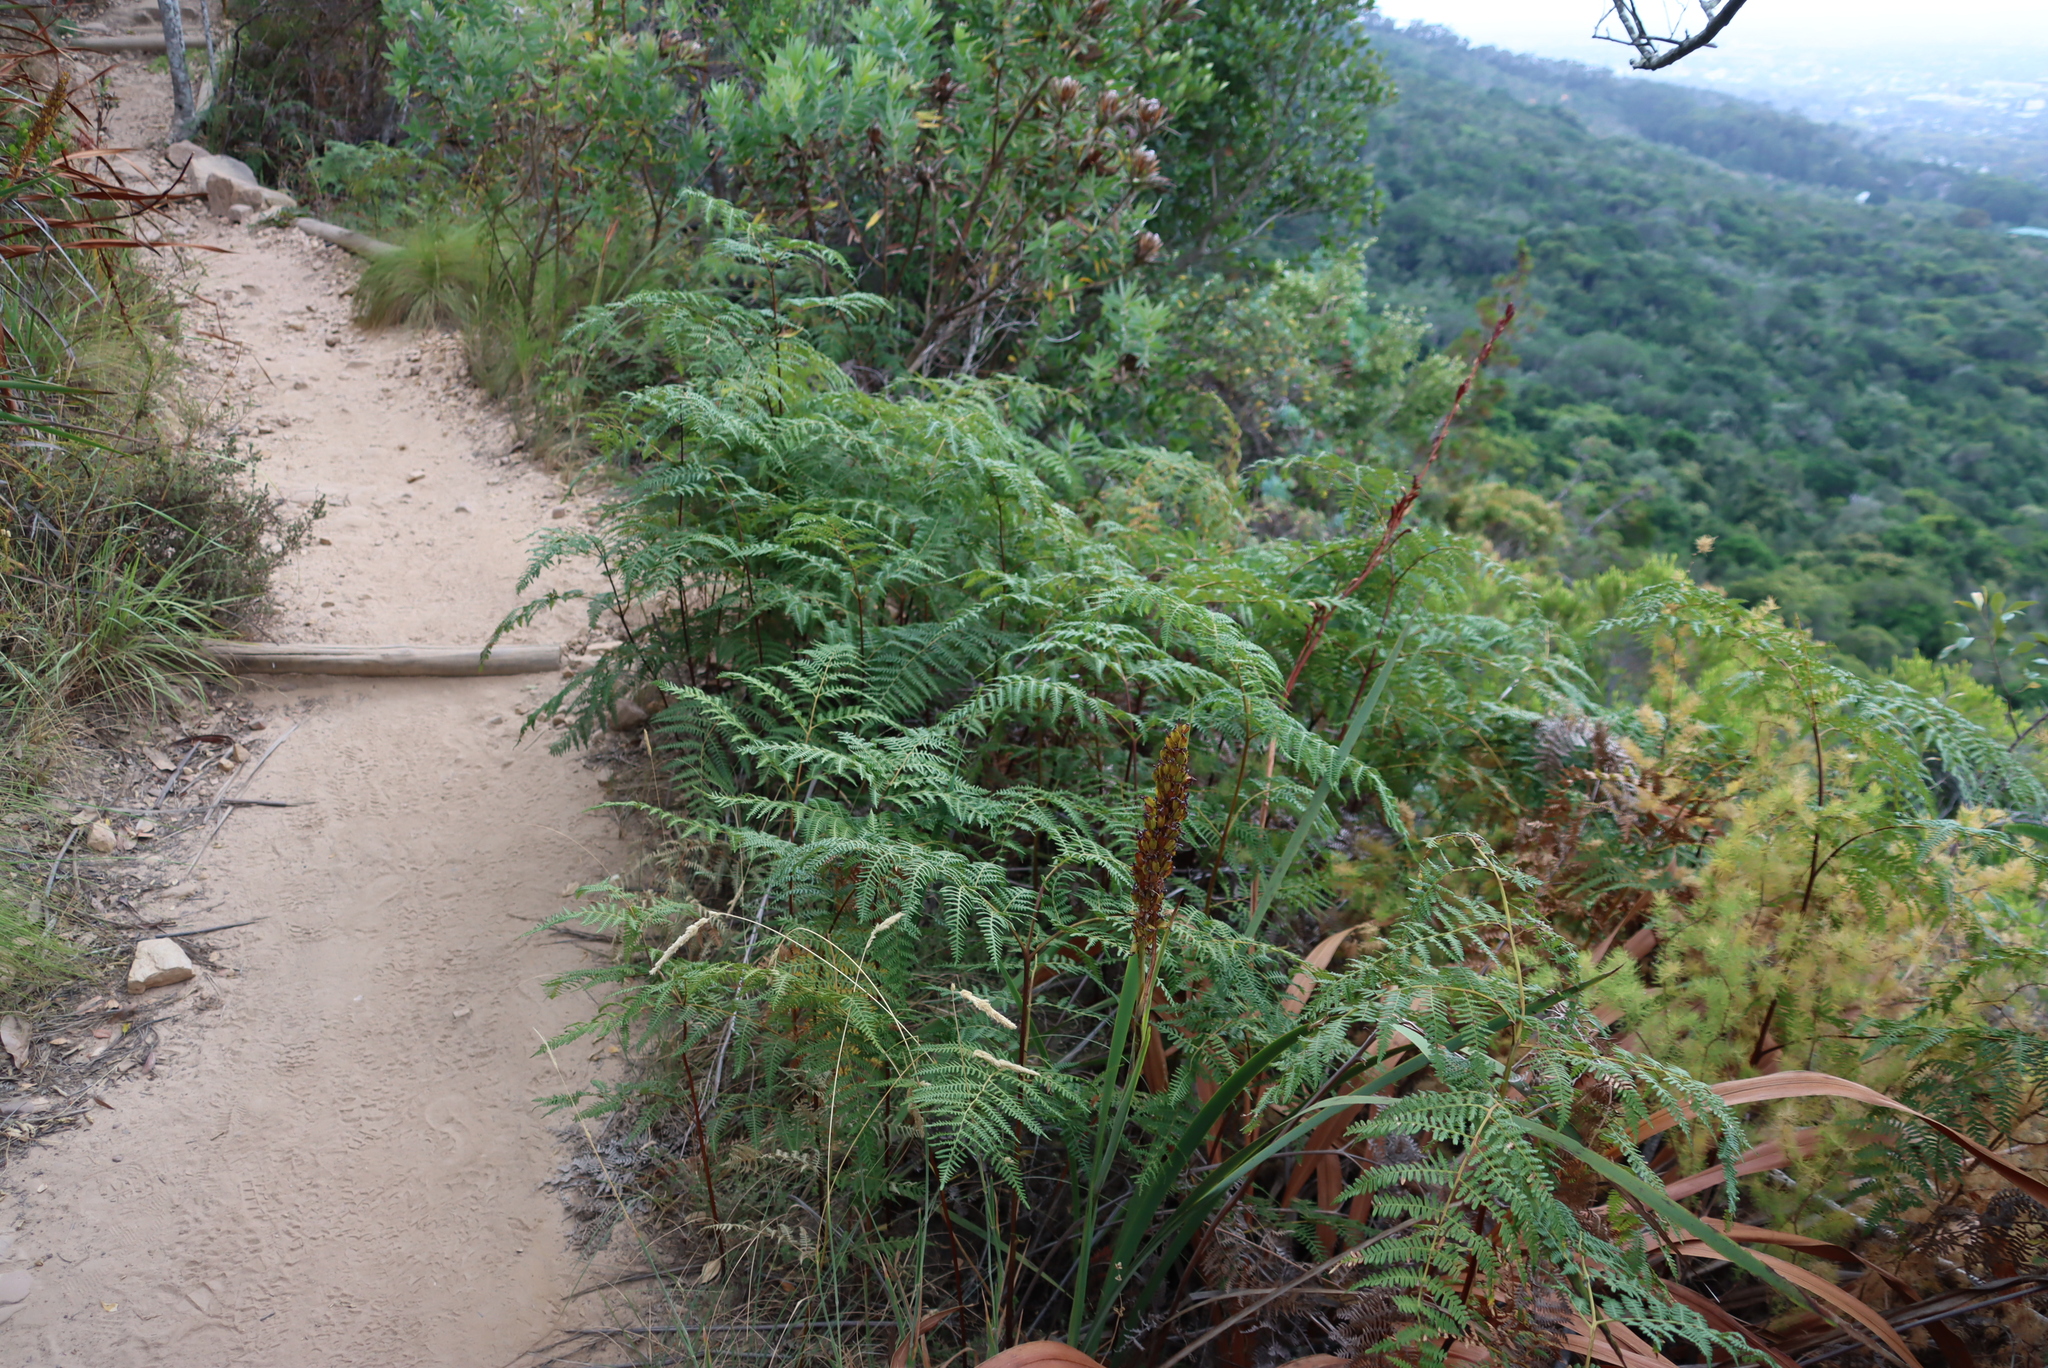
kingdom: Plantae
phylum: Tracheophyta
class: Polypodiopsida
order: Polypodiales
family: Dennstaedtiaceae
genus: Pteridium
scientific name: Pteridium aquilinum
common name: Bracken
